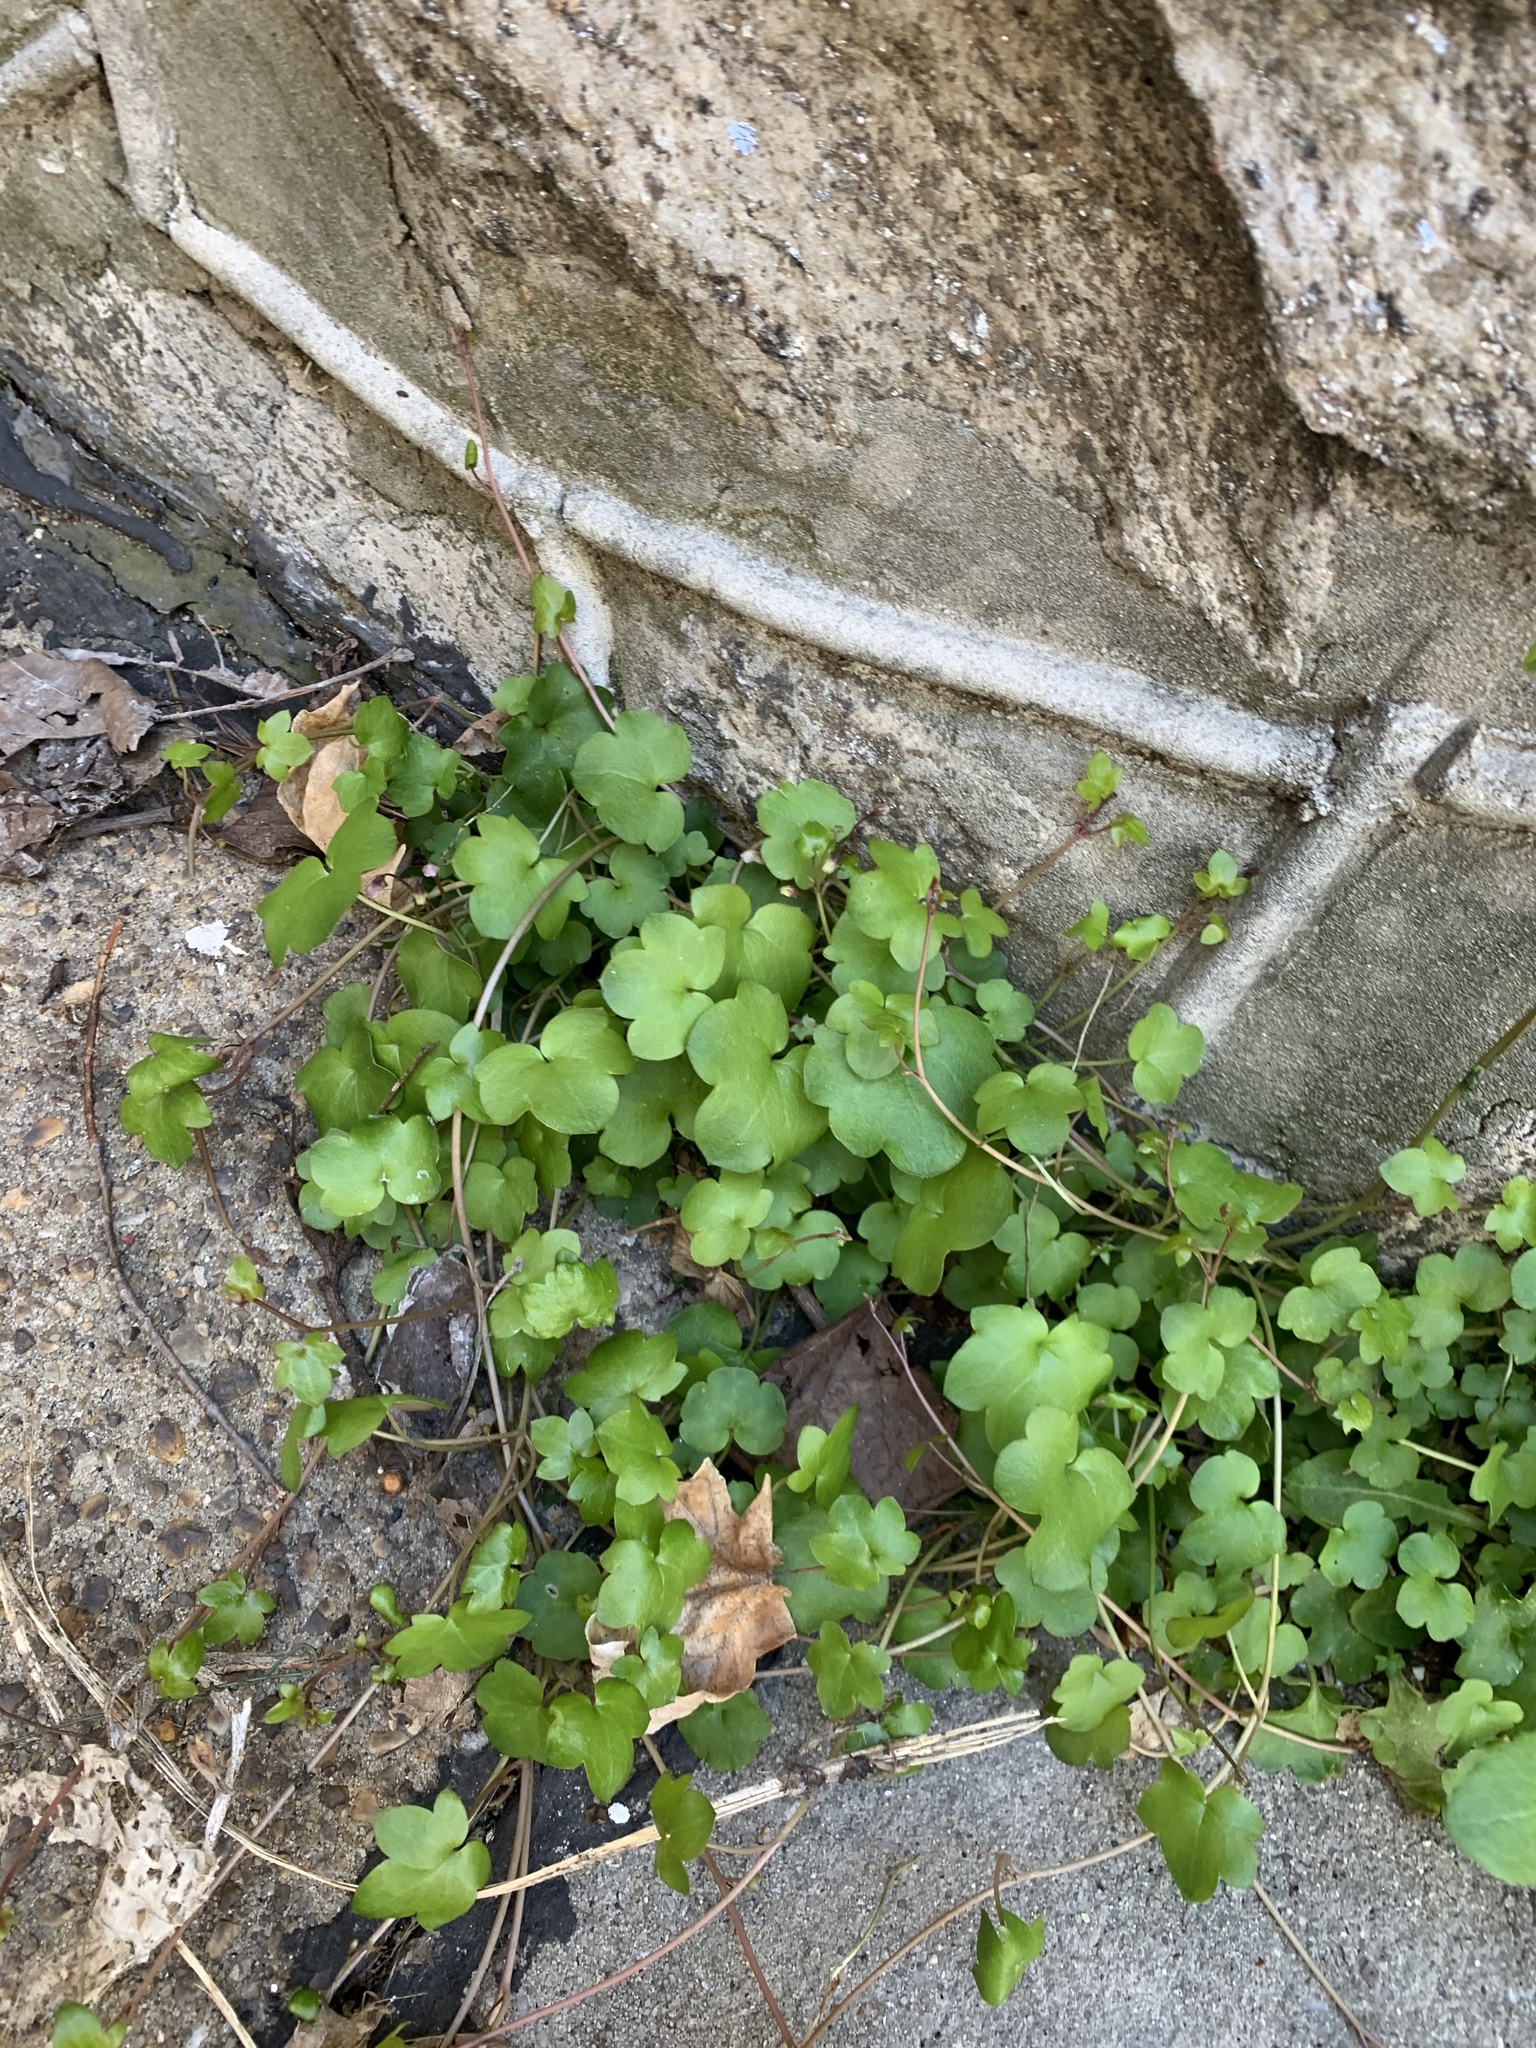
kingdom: Plantae
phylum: Tracheophyta
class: Magnoliopsida
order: Lamiales
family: Plantaginaceae
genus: Cymbalaria
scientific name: Cymbalaria muralis
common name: Ivy-leaved toadflax
